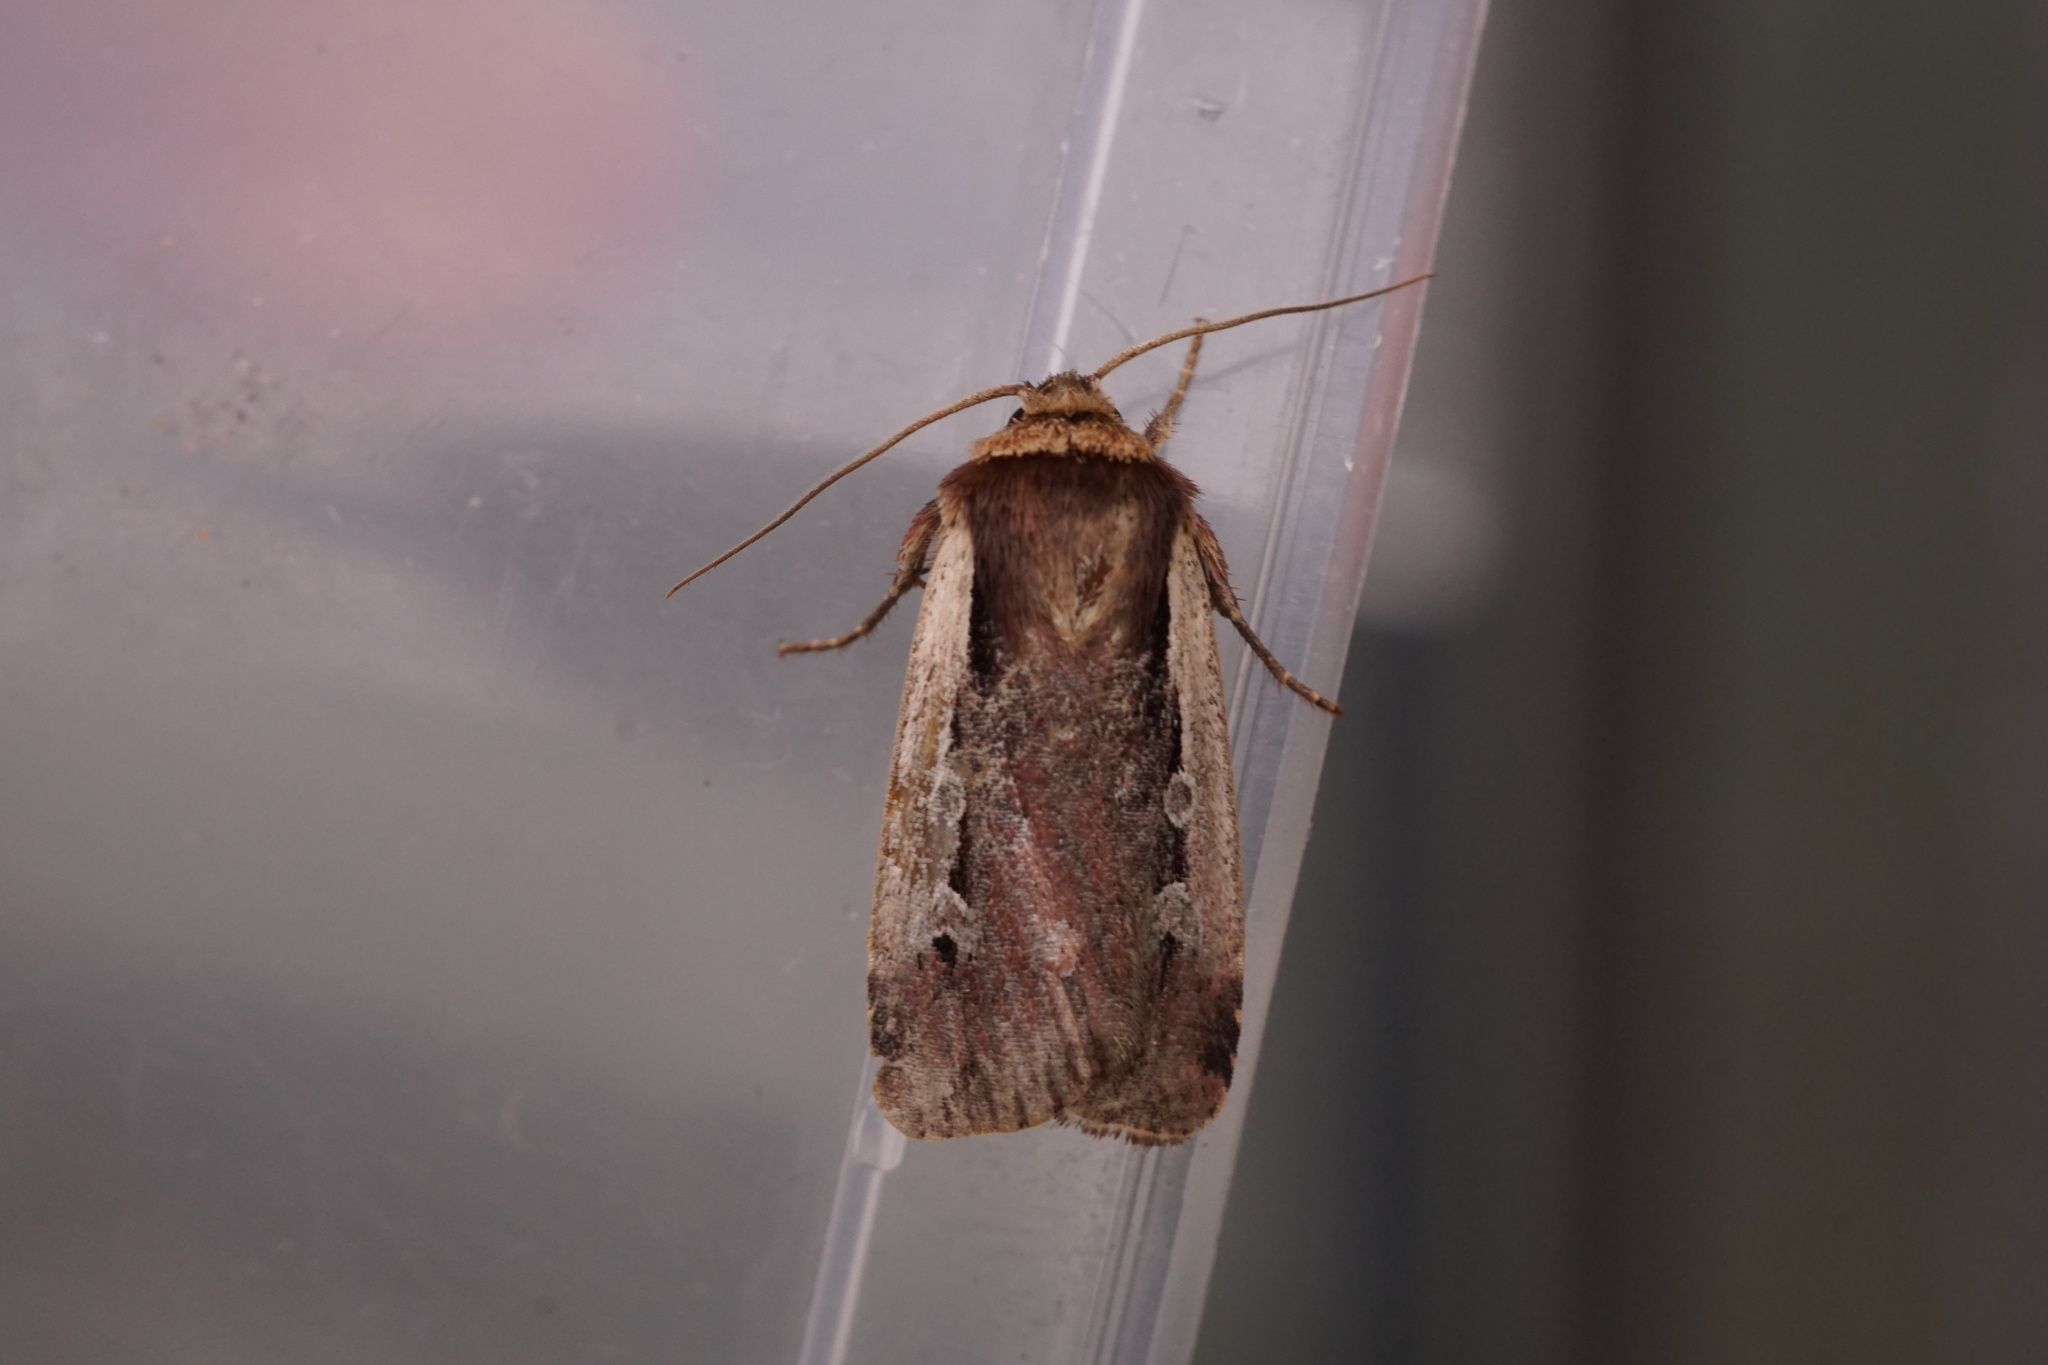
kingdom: Animalia
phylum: Arthropoda
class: Insecta
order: Lepidoptera
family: Noctuidae
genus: Ochropleura
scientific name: Ochropleura plecta
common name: Flame shoulder
